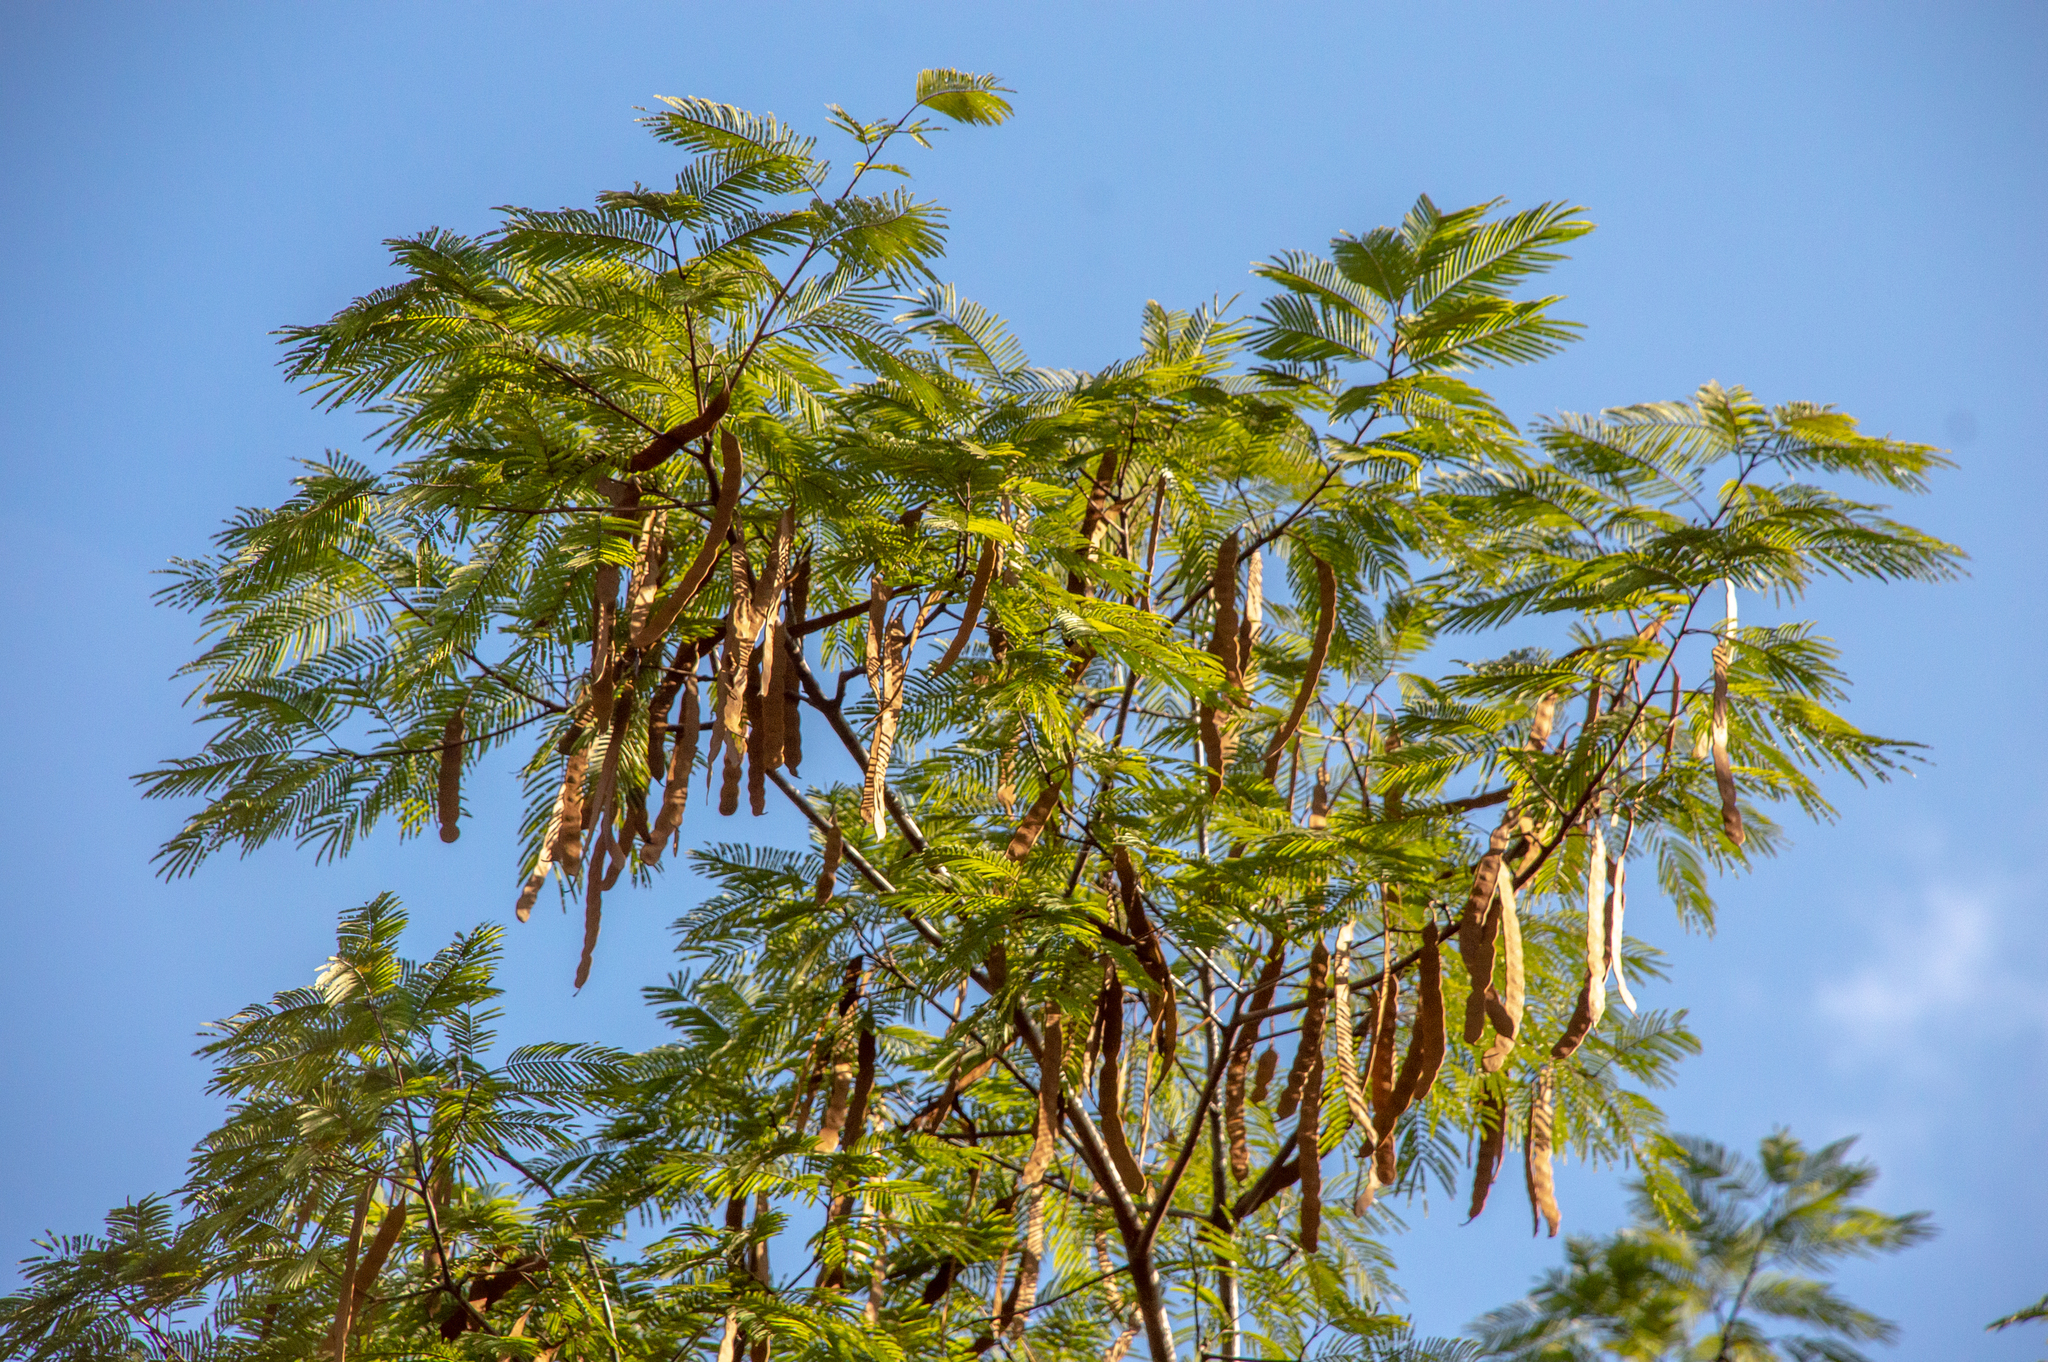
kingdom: Plantae
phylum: Tracheophyta
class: Magnoliopsida
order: Fabales
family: Fabaceae
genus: Anadenanthera
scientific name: Anadenanthera peregrina
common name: Cohoba
